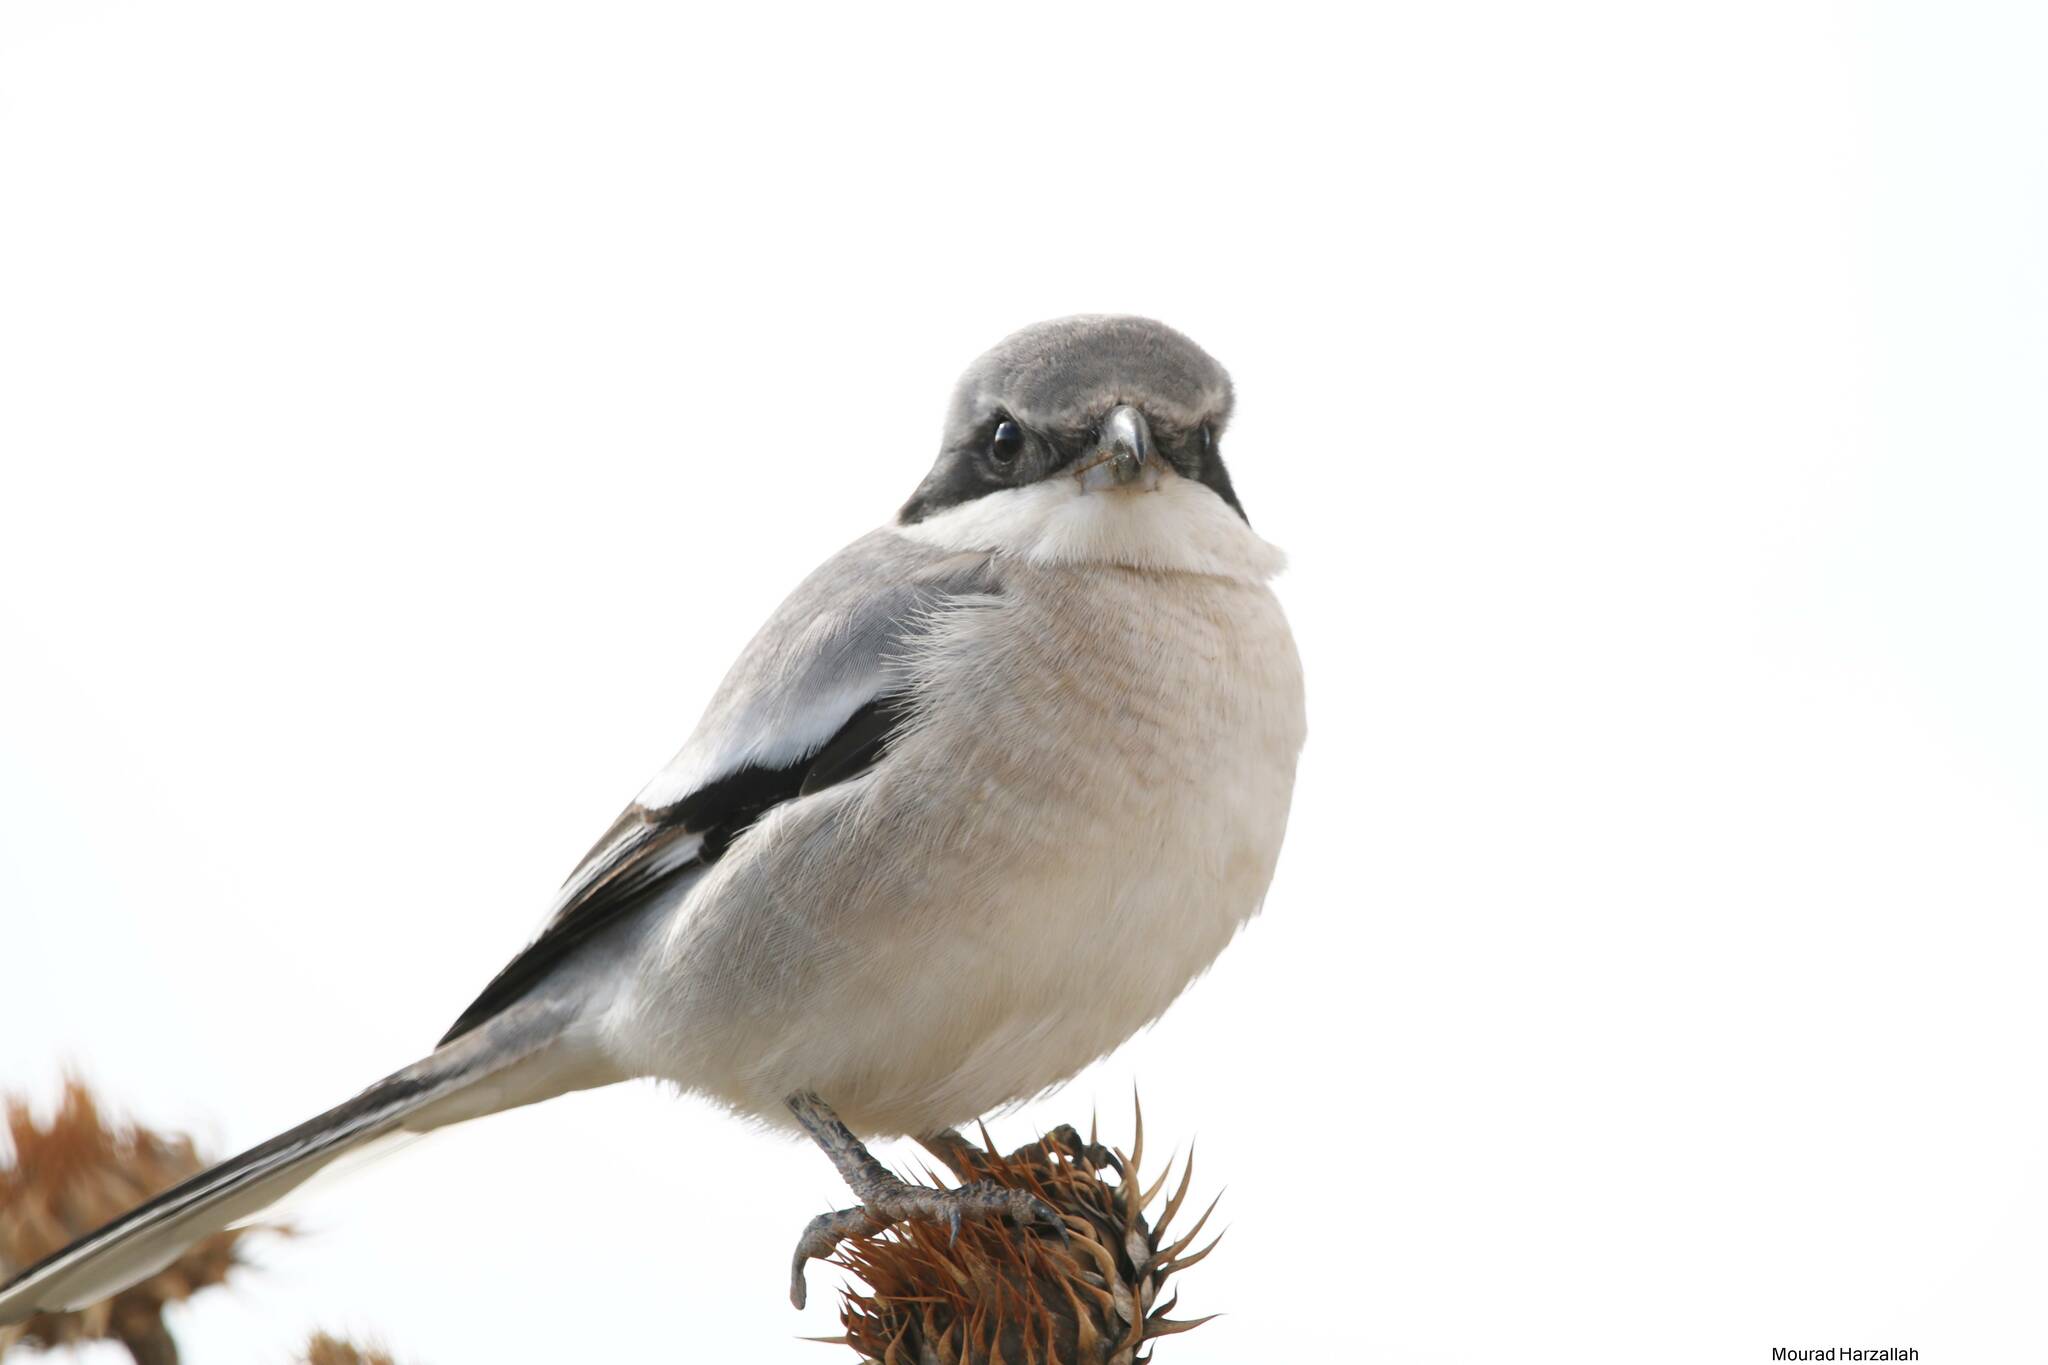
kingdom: Animalia
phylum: Chordata
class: Aves
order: Passeriformes
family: Laniidae
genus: Lanius
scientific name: Lanius excubitor
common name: Great grey shrike
